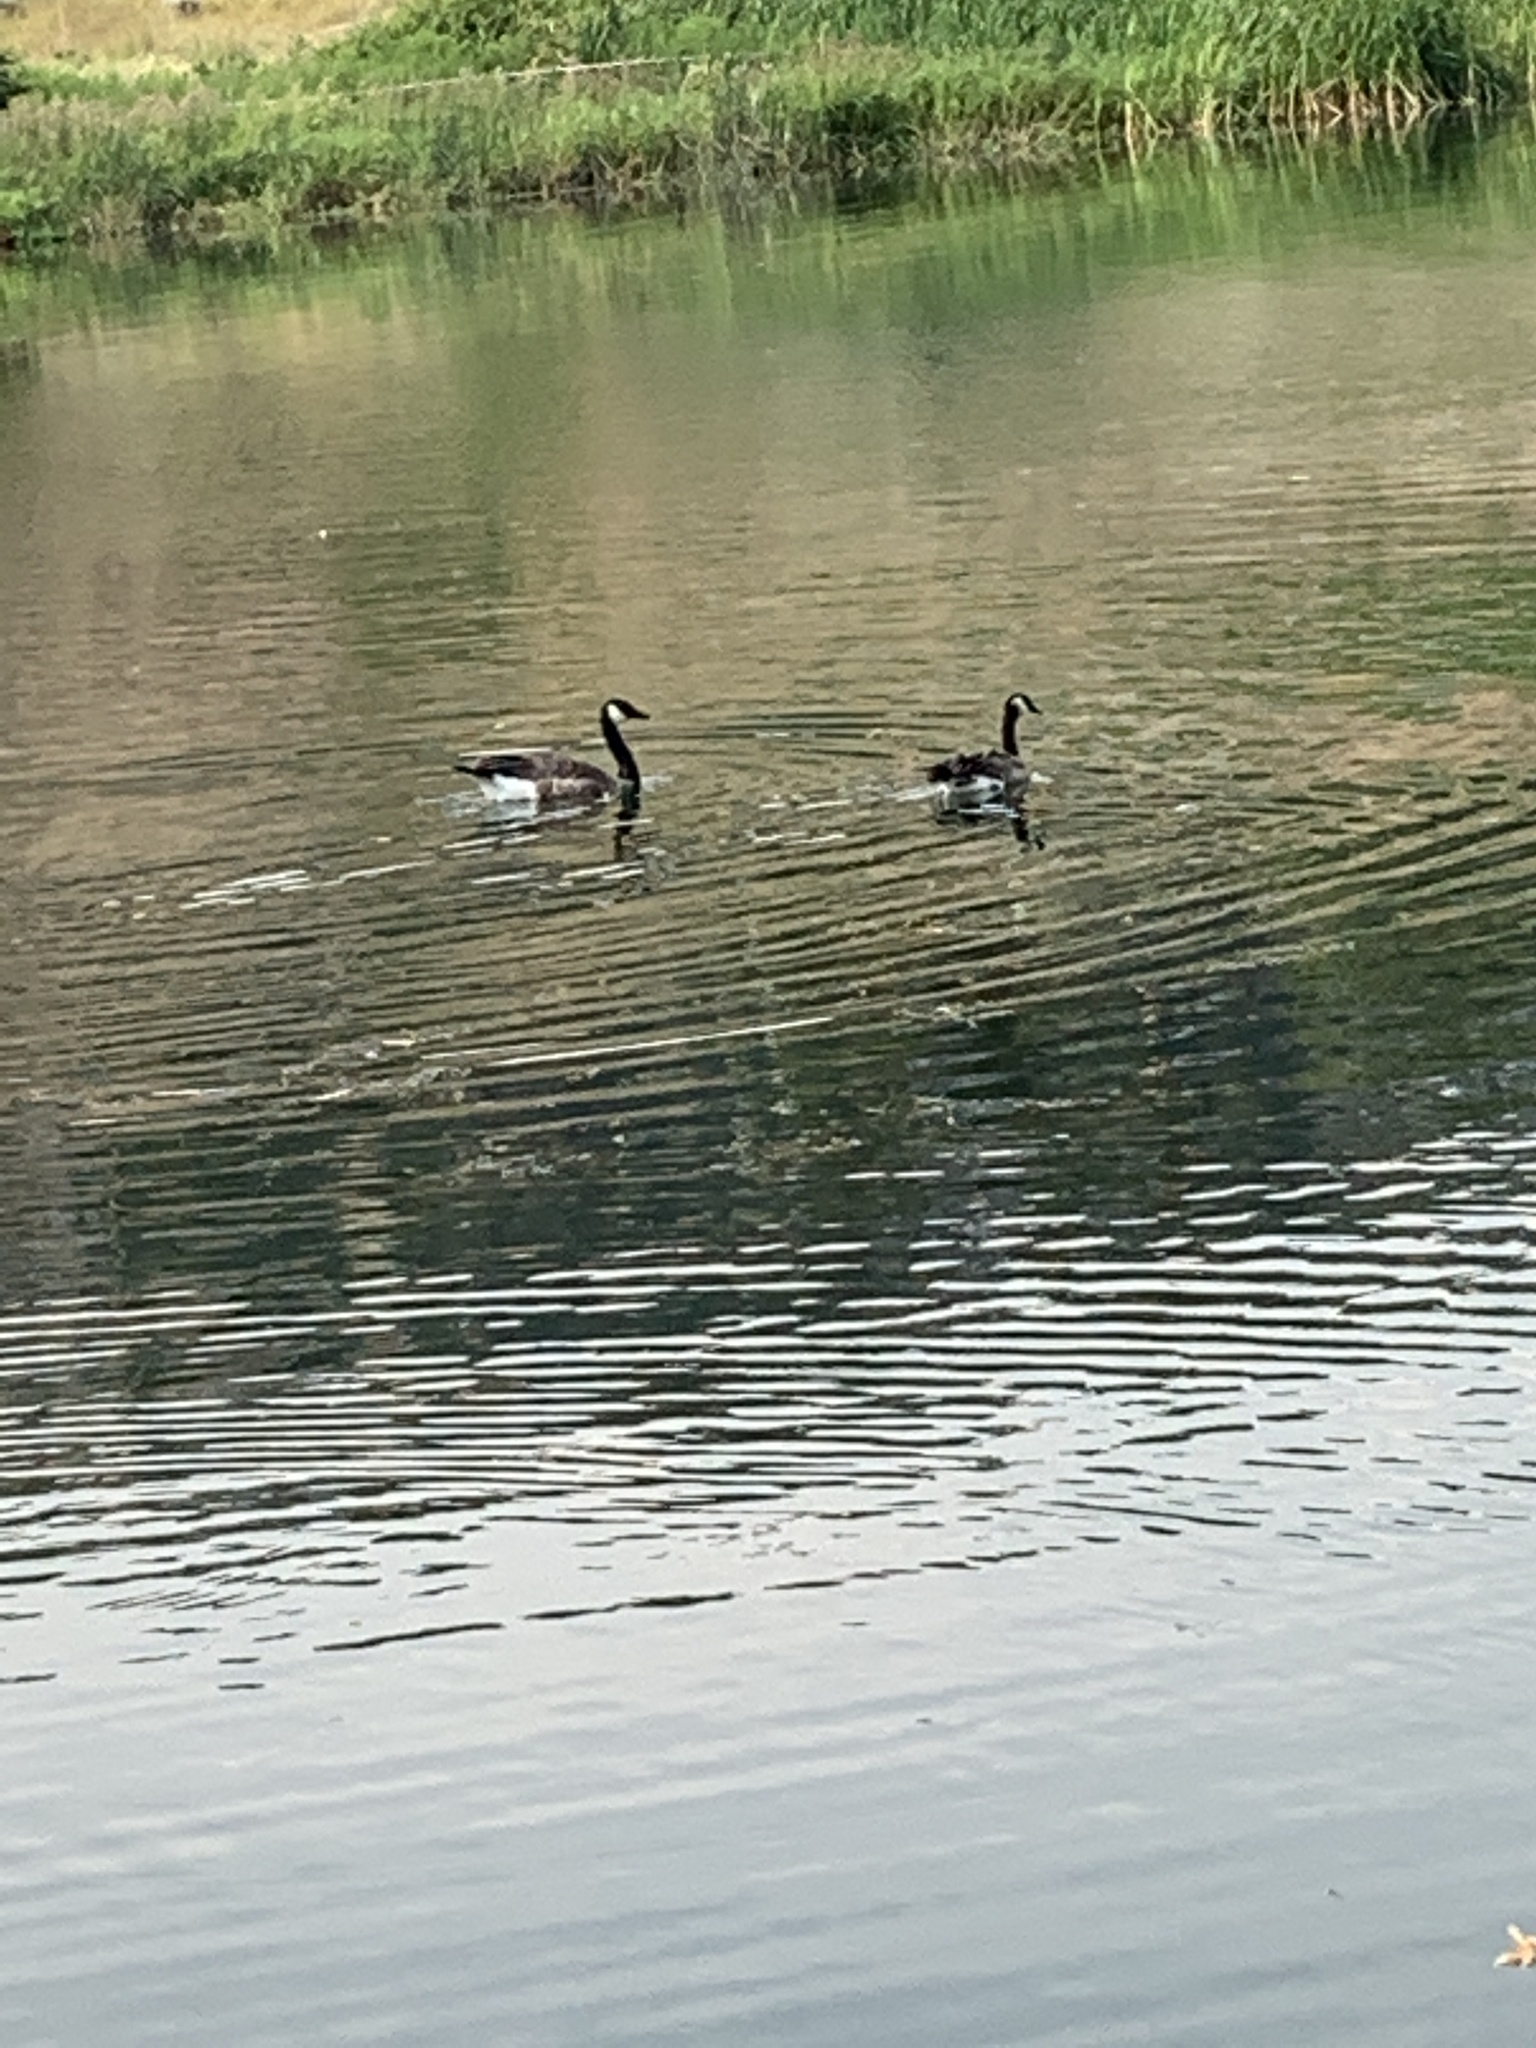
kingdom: Animalia
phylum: Chordata
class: Aves
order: Anseriformes
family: Anatidae
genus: Branta
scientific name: Branta canadensis
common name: Canada goose
